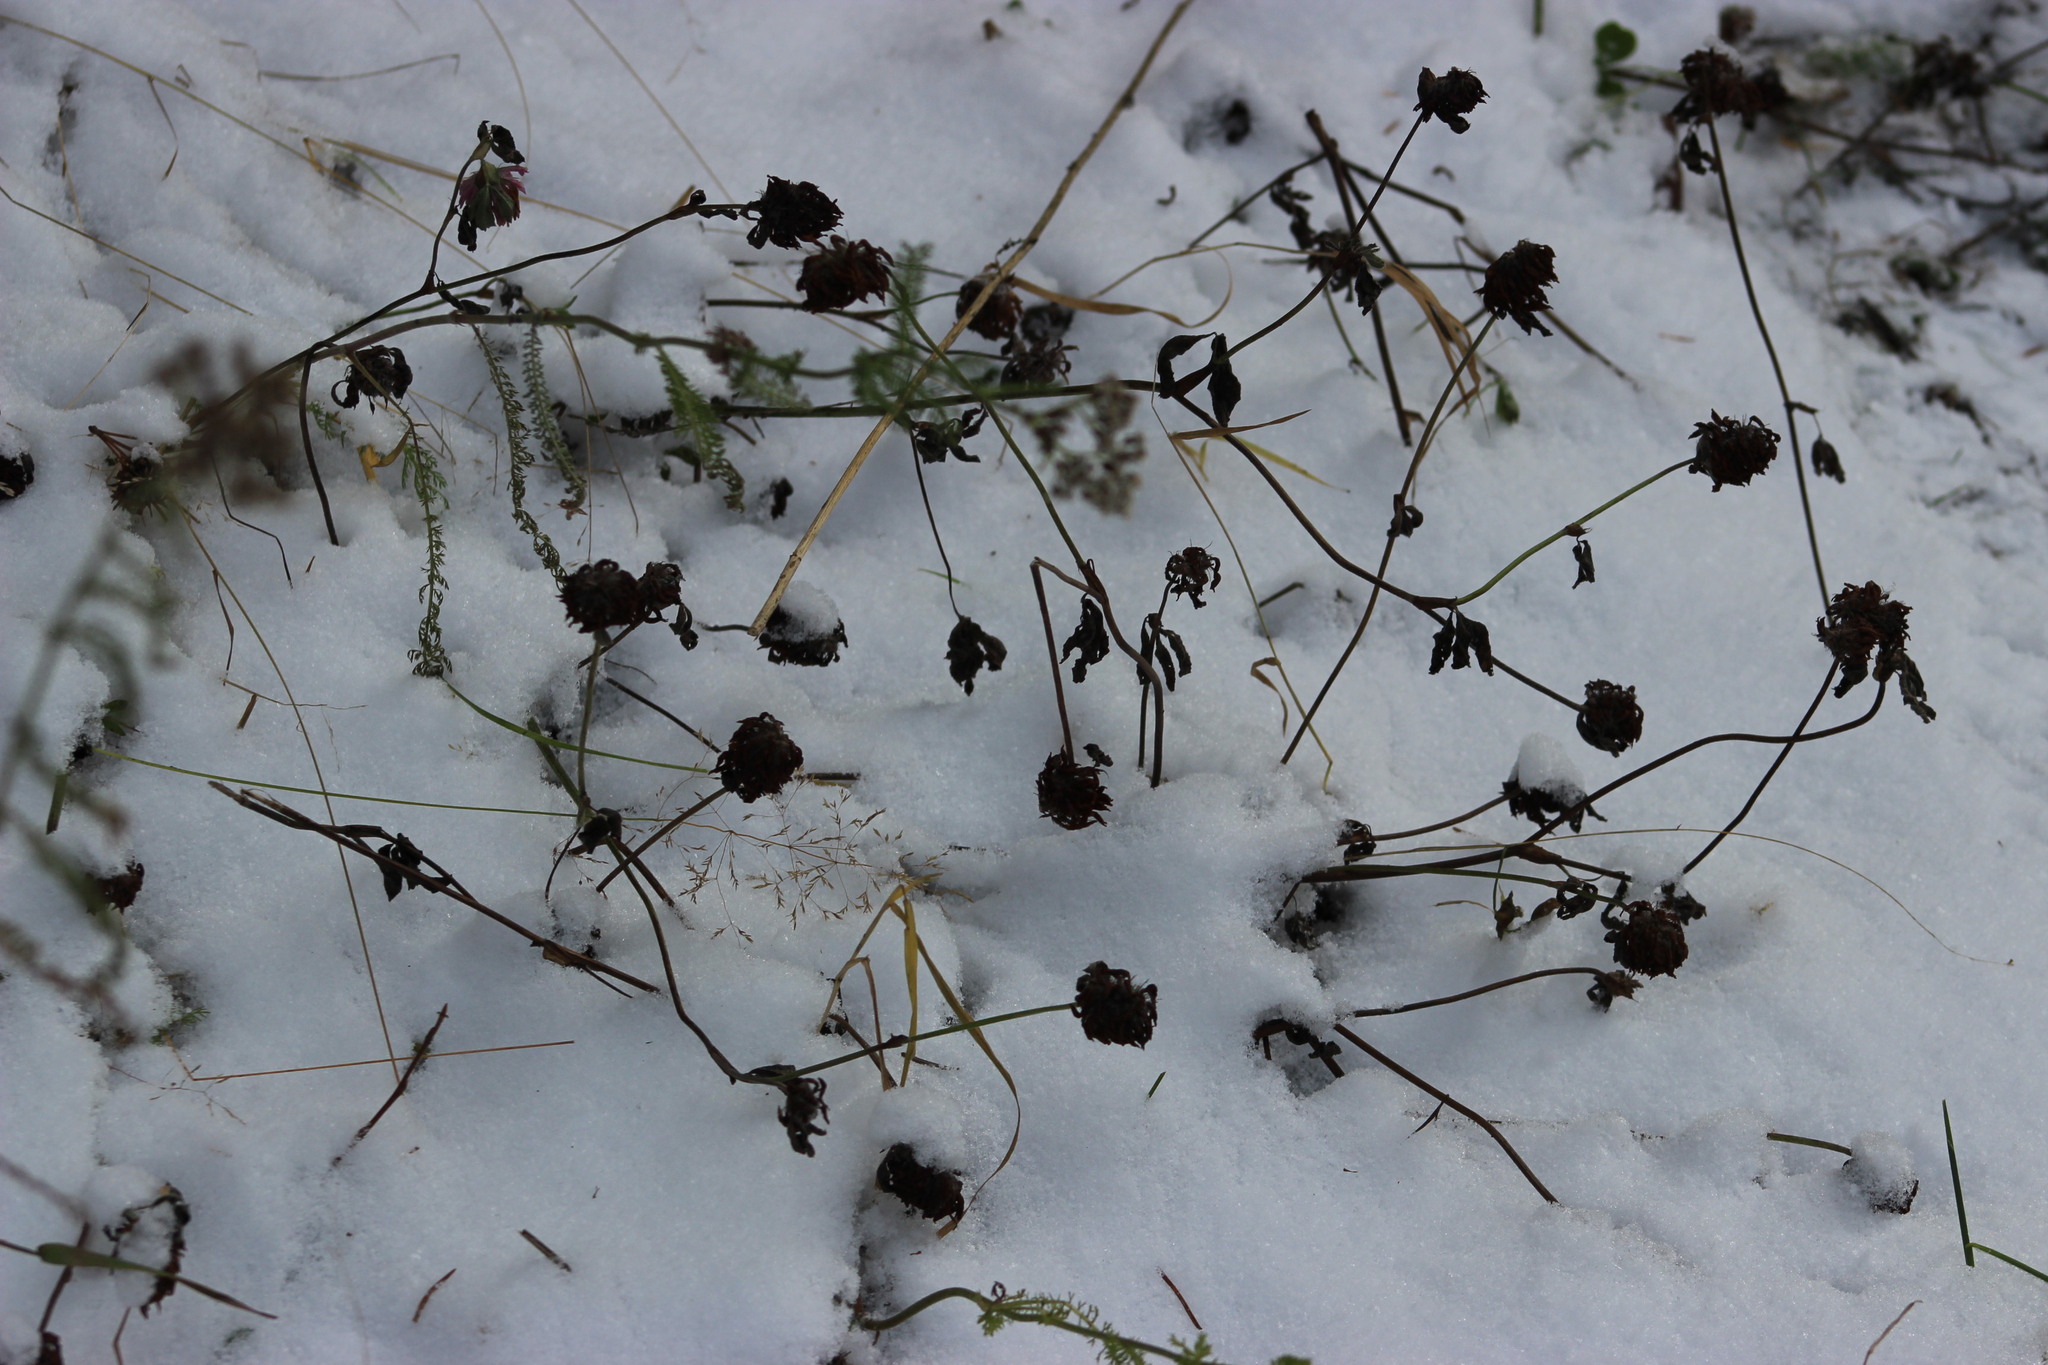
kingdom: Plantae
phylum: Tracheophyta
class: Magnoliopsida
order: Fabales
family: Fabaceae
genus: Trifolium
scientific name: Trifolium pratense
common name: Red clover
